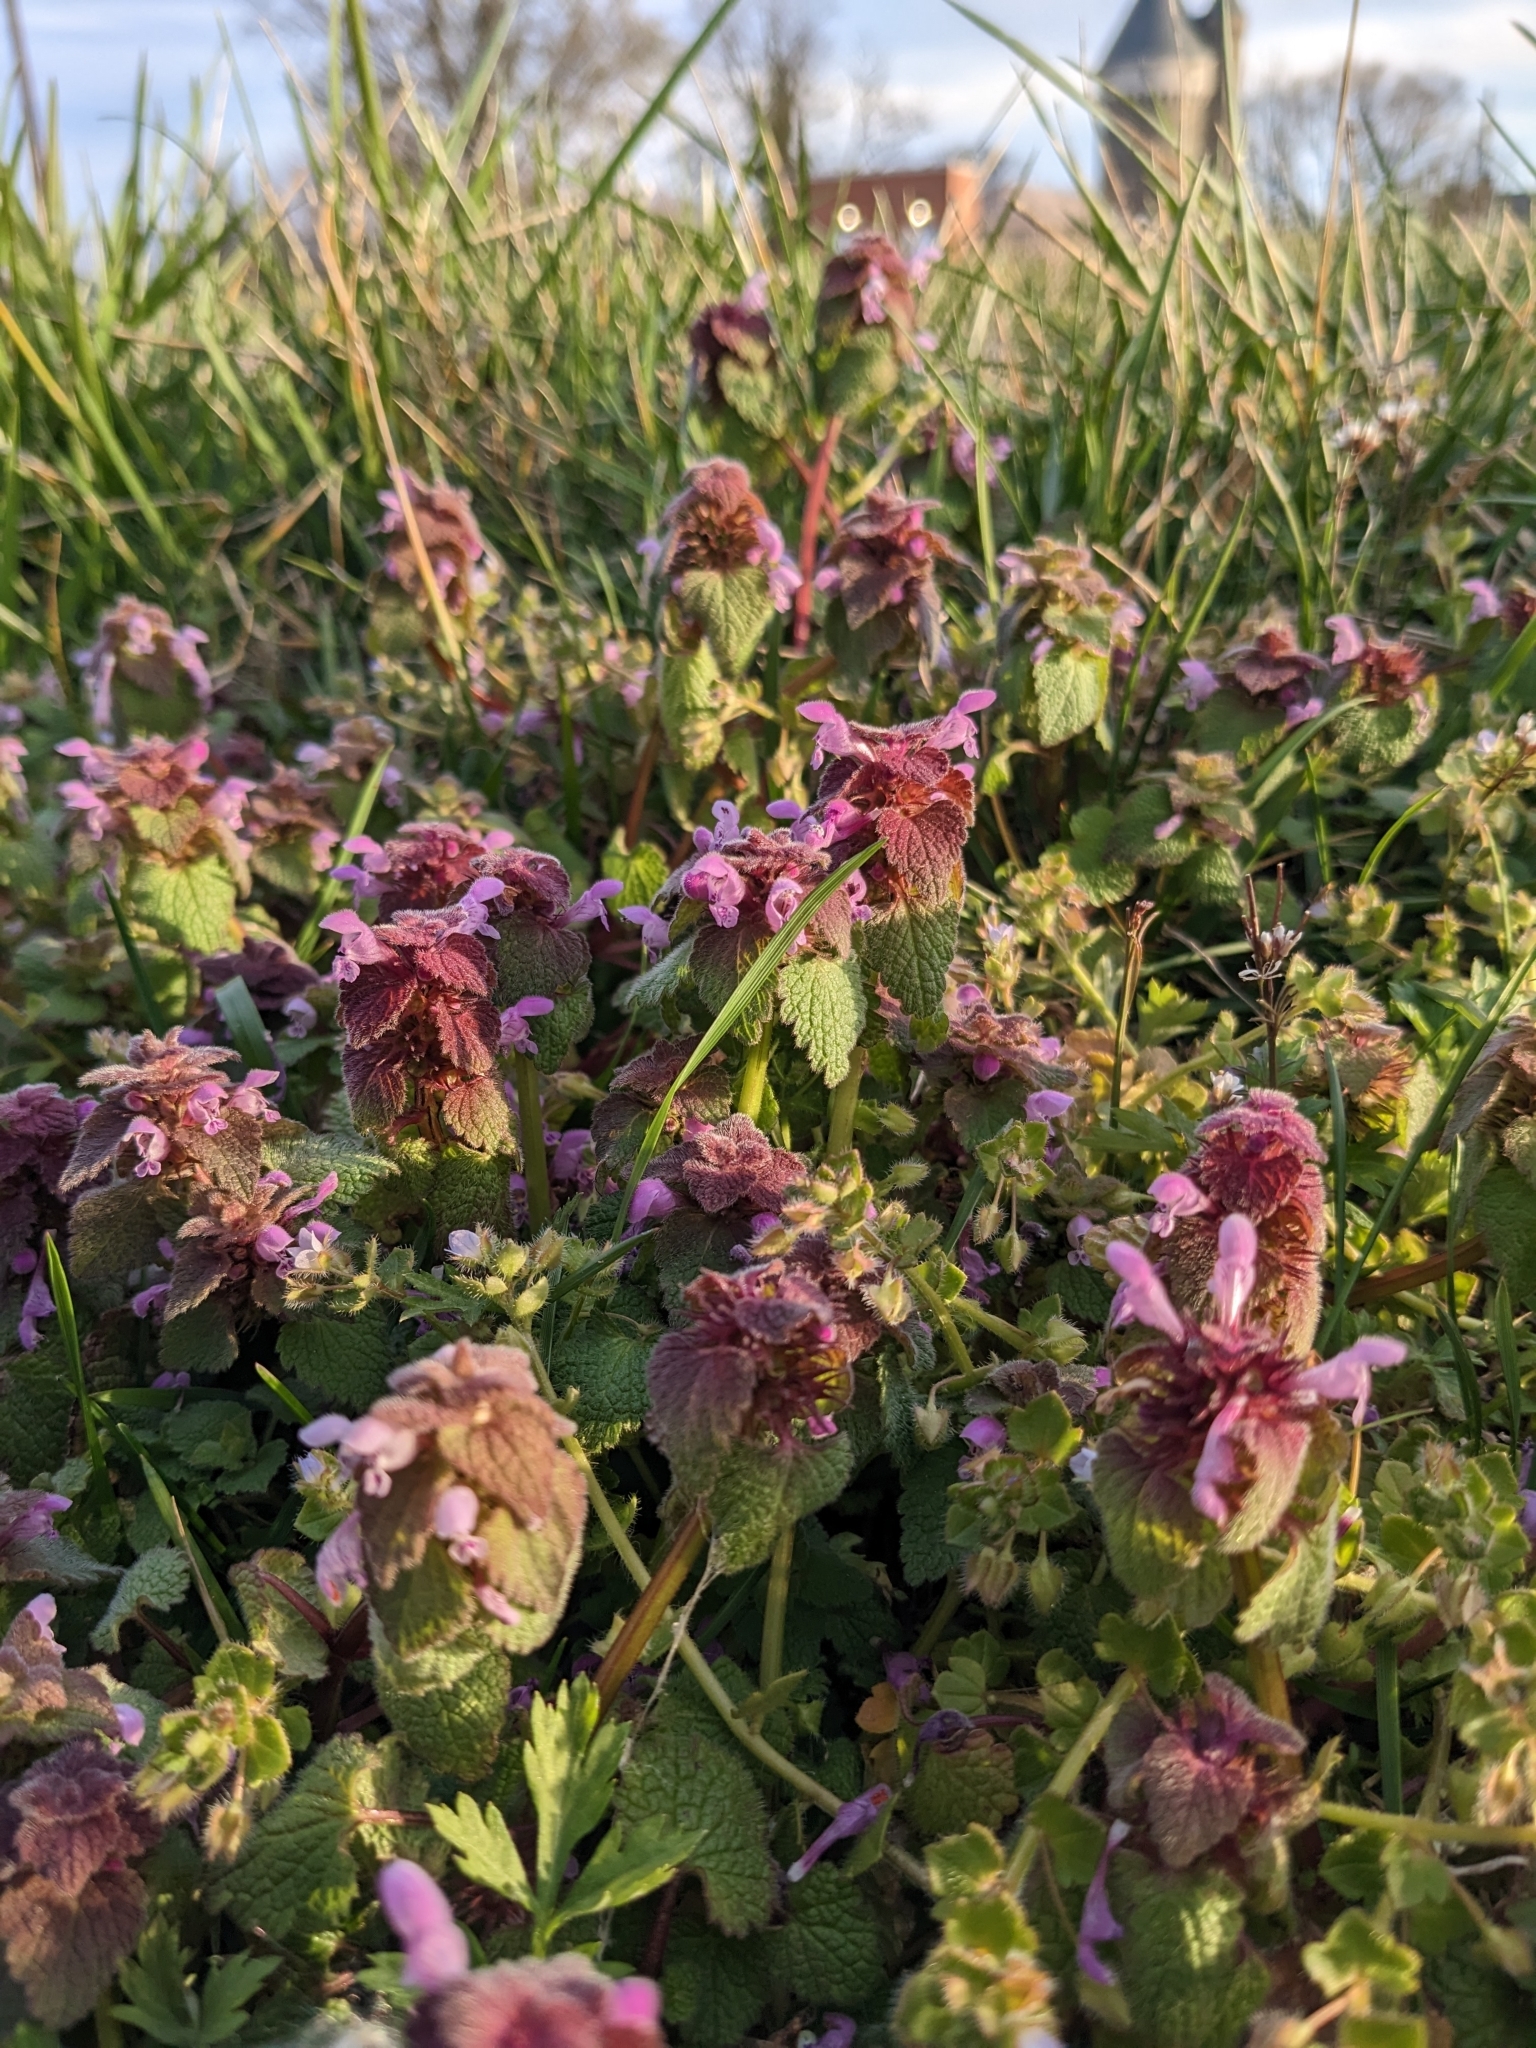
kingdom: Plantae
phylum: Tracheophyta
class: Magnoliopsida
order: Lamiales
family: Lamiaceae
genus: Lamium
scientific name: Lamium purpureum
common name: Red dead-nettle
